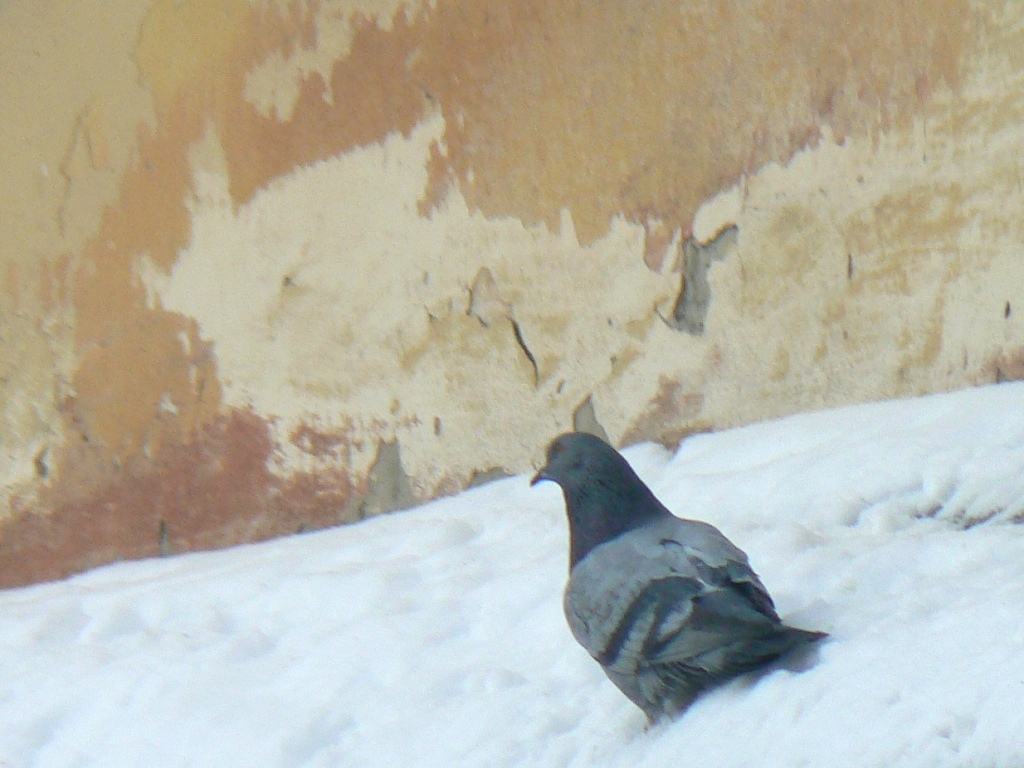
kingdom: Animalia
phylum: Chordata
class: Aves
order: Columbiformes
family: Columbidae
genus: Columba
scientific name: Columba livia
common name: Rock pigeon
